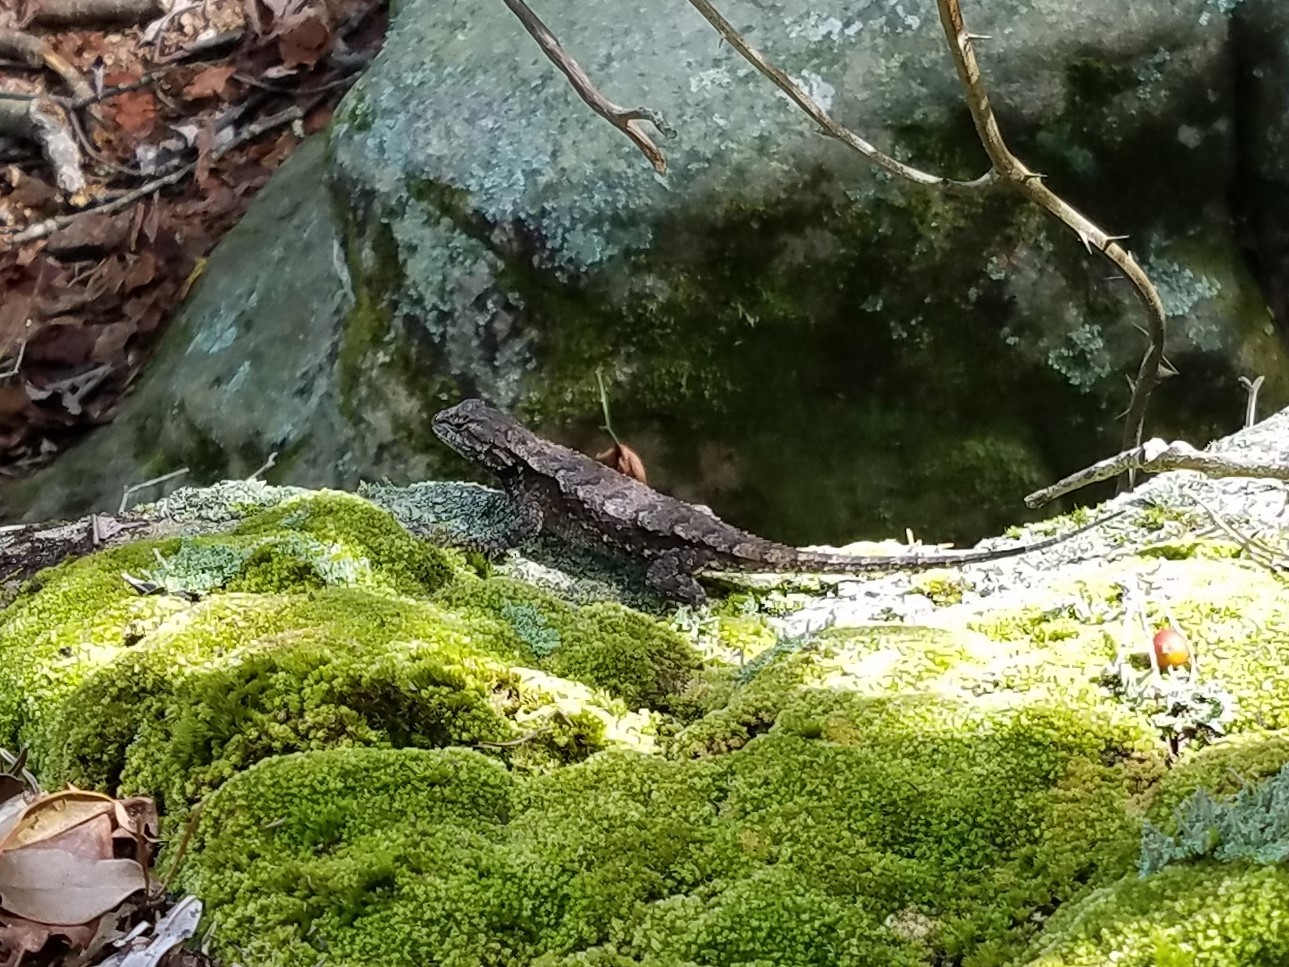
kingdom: Animalia
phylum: Chordata
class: Squamata
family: Phrynosomatidae
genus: Sceloporus
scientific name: Sceloporus undulatus
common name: Eastern fence lizard
